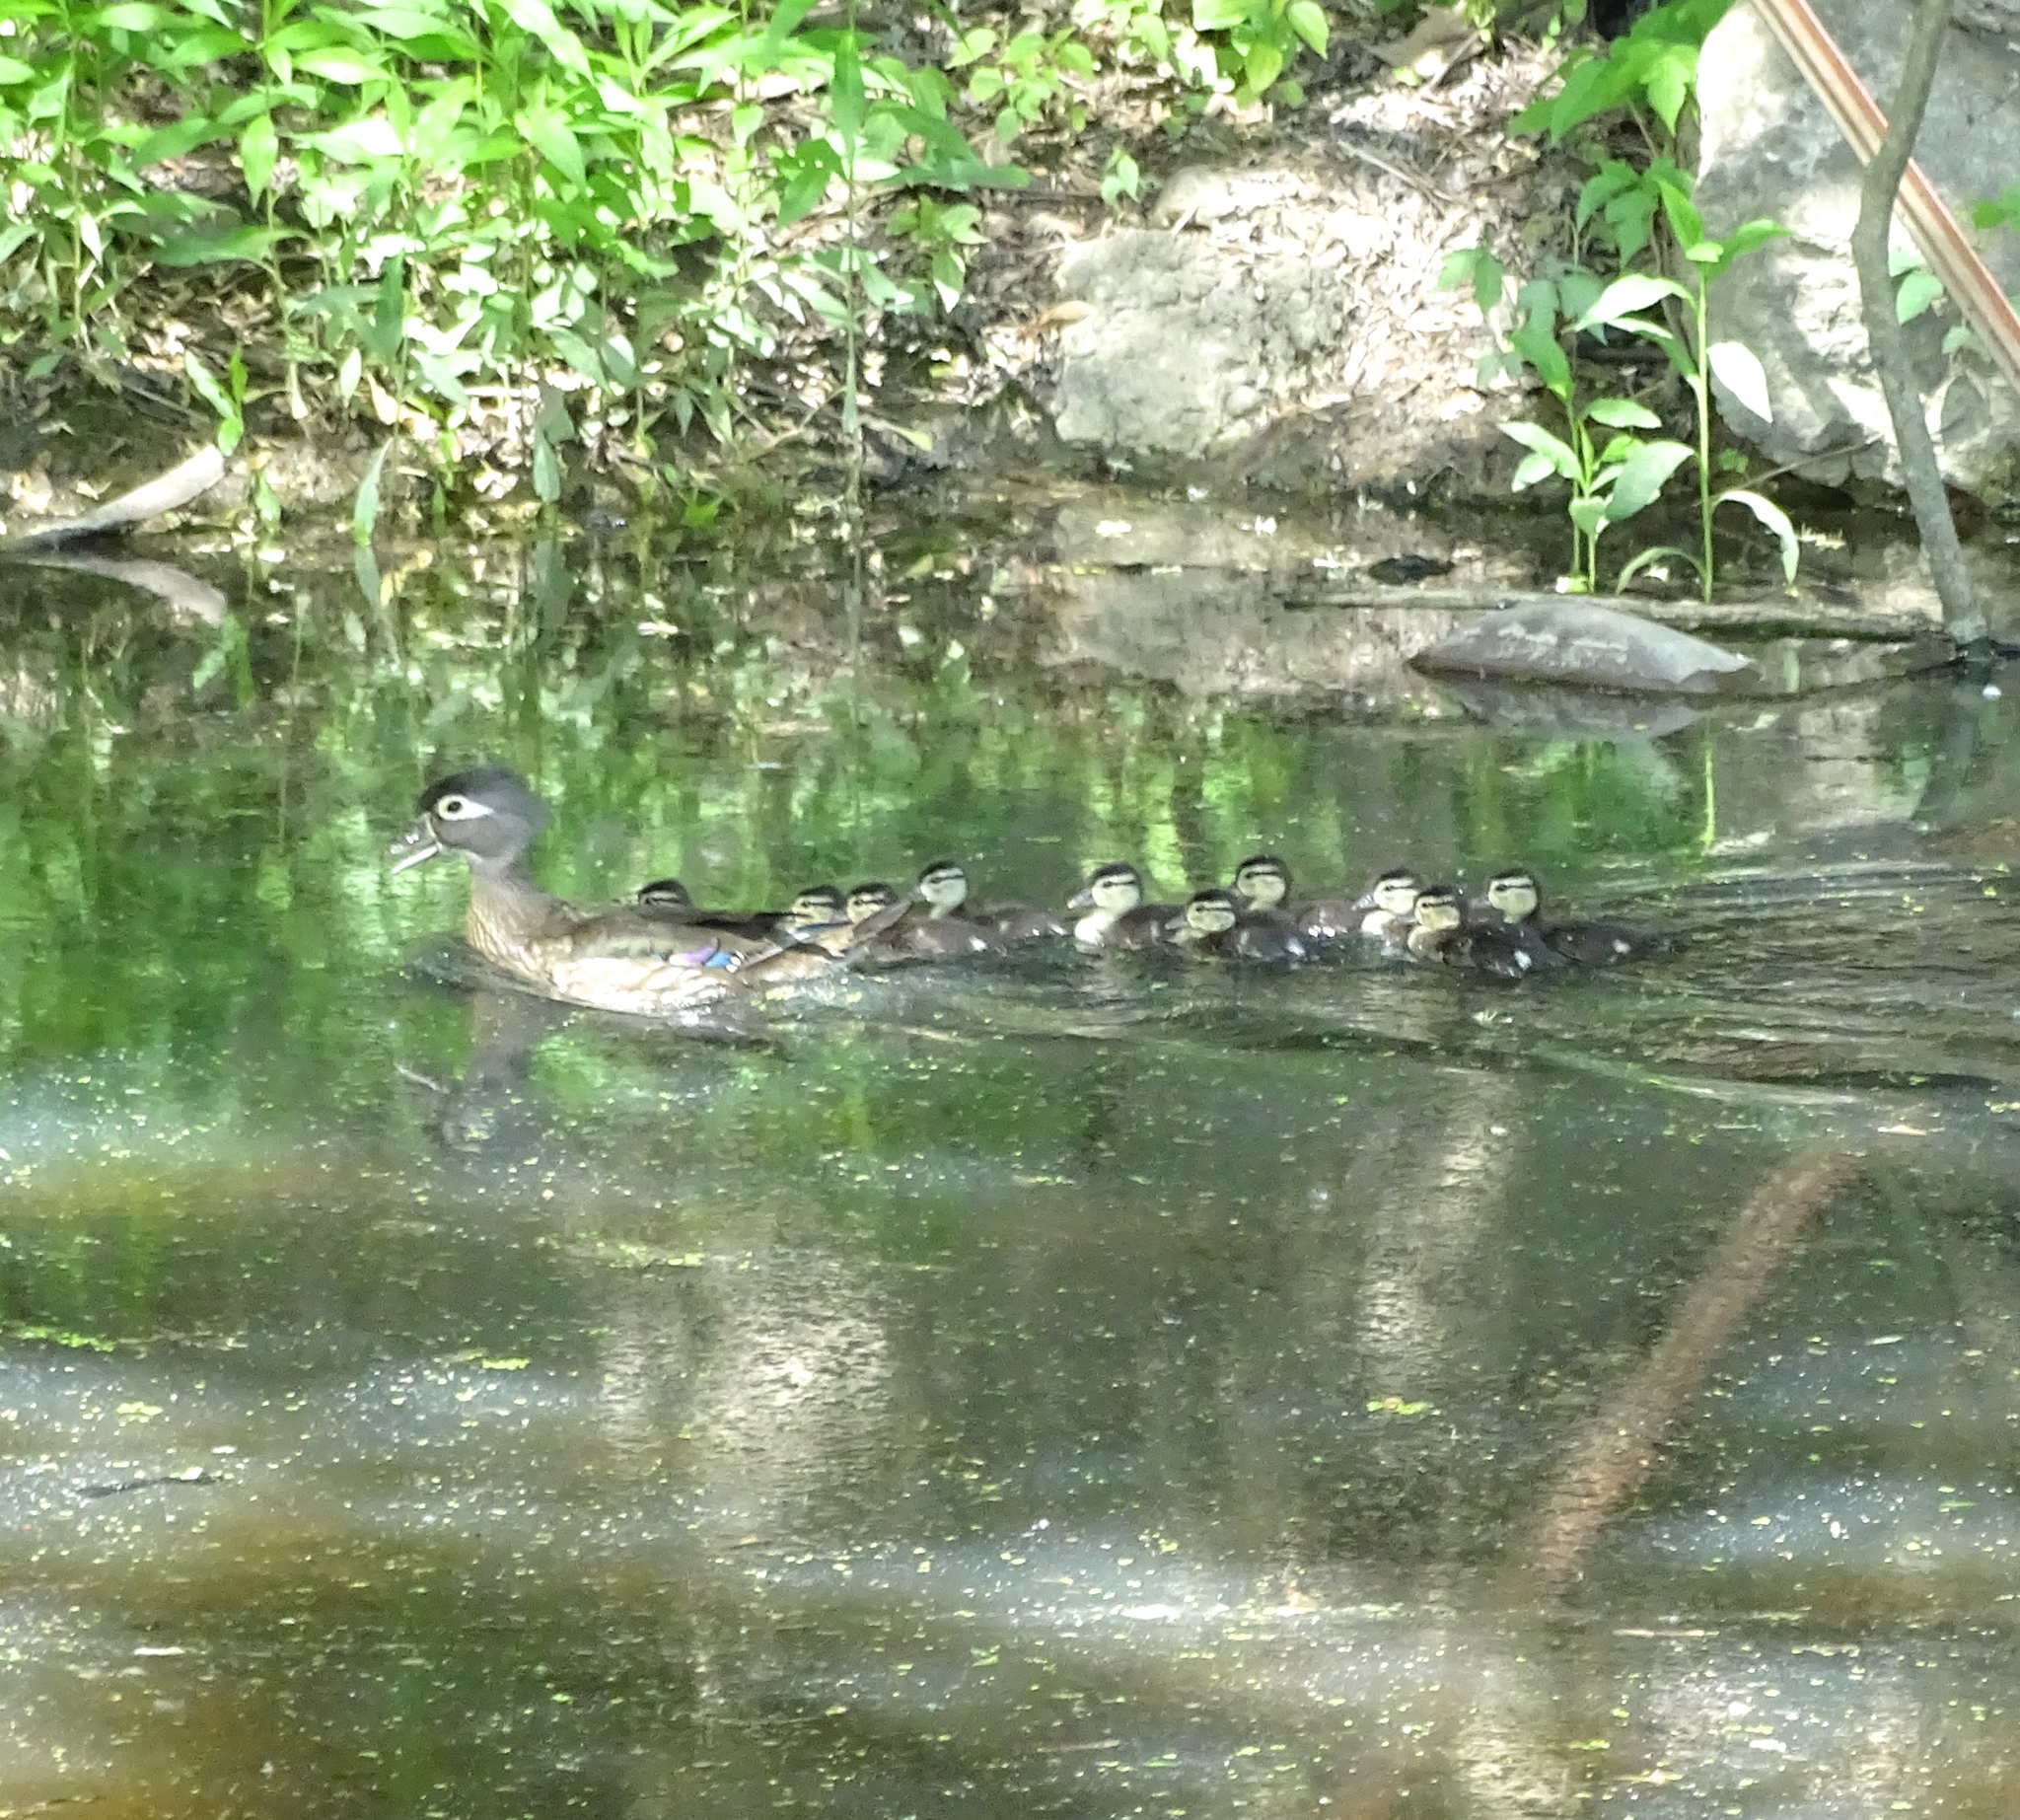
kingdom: Animalia
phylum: Chordata
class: Aves
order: Anseriformes
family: Anatidae
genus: Aix
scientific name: Aix sponsa
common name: Wood duck
